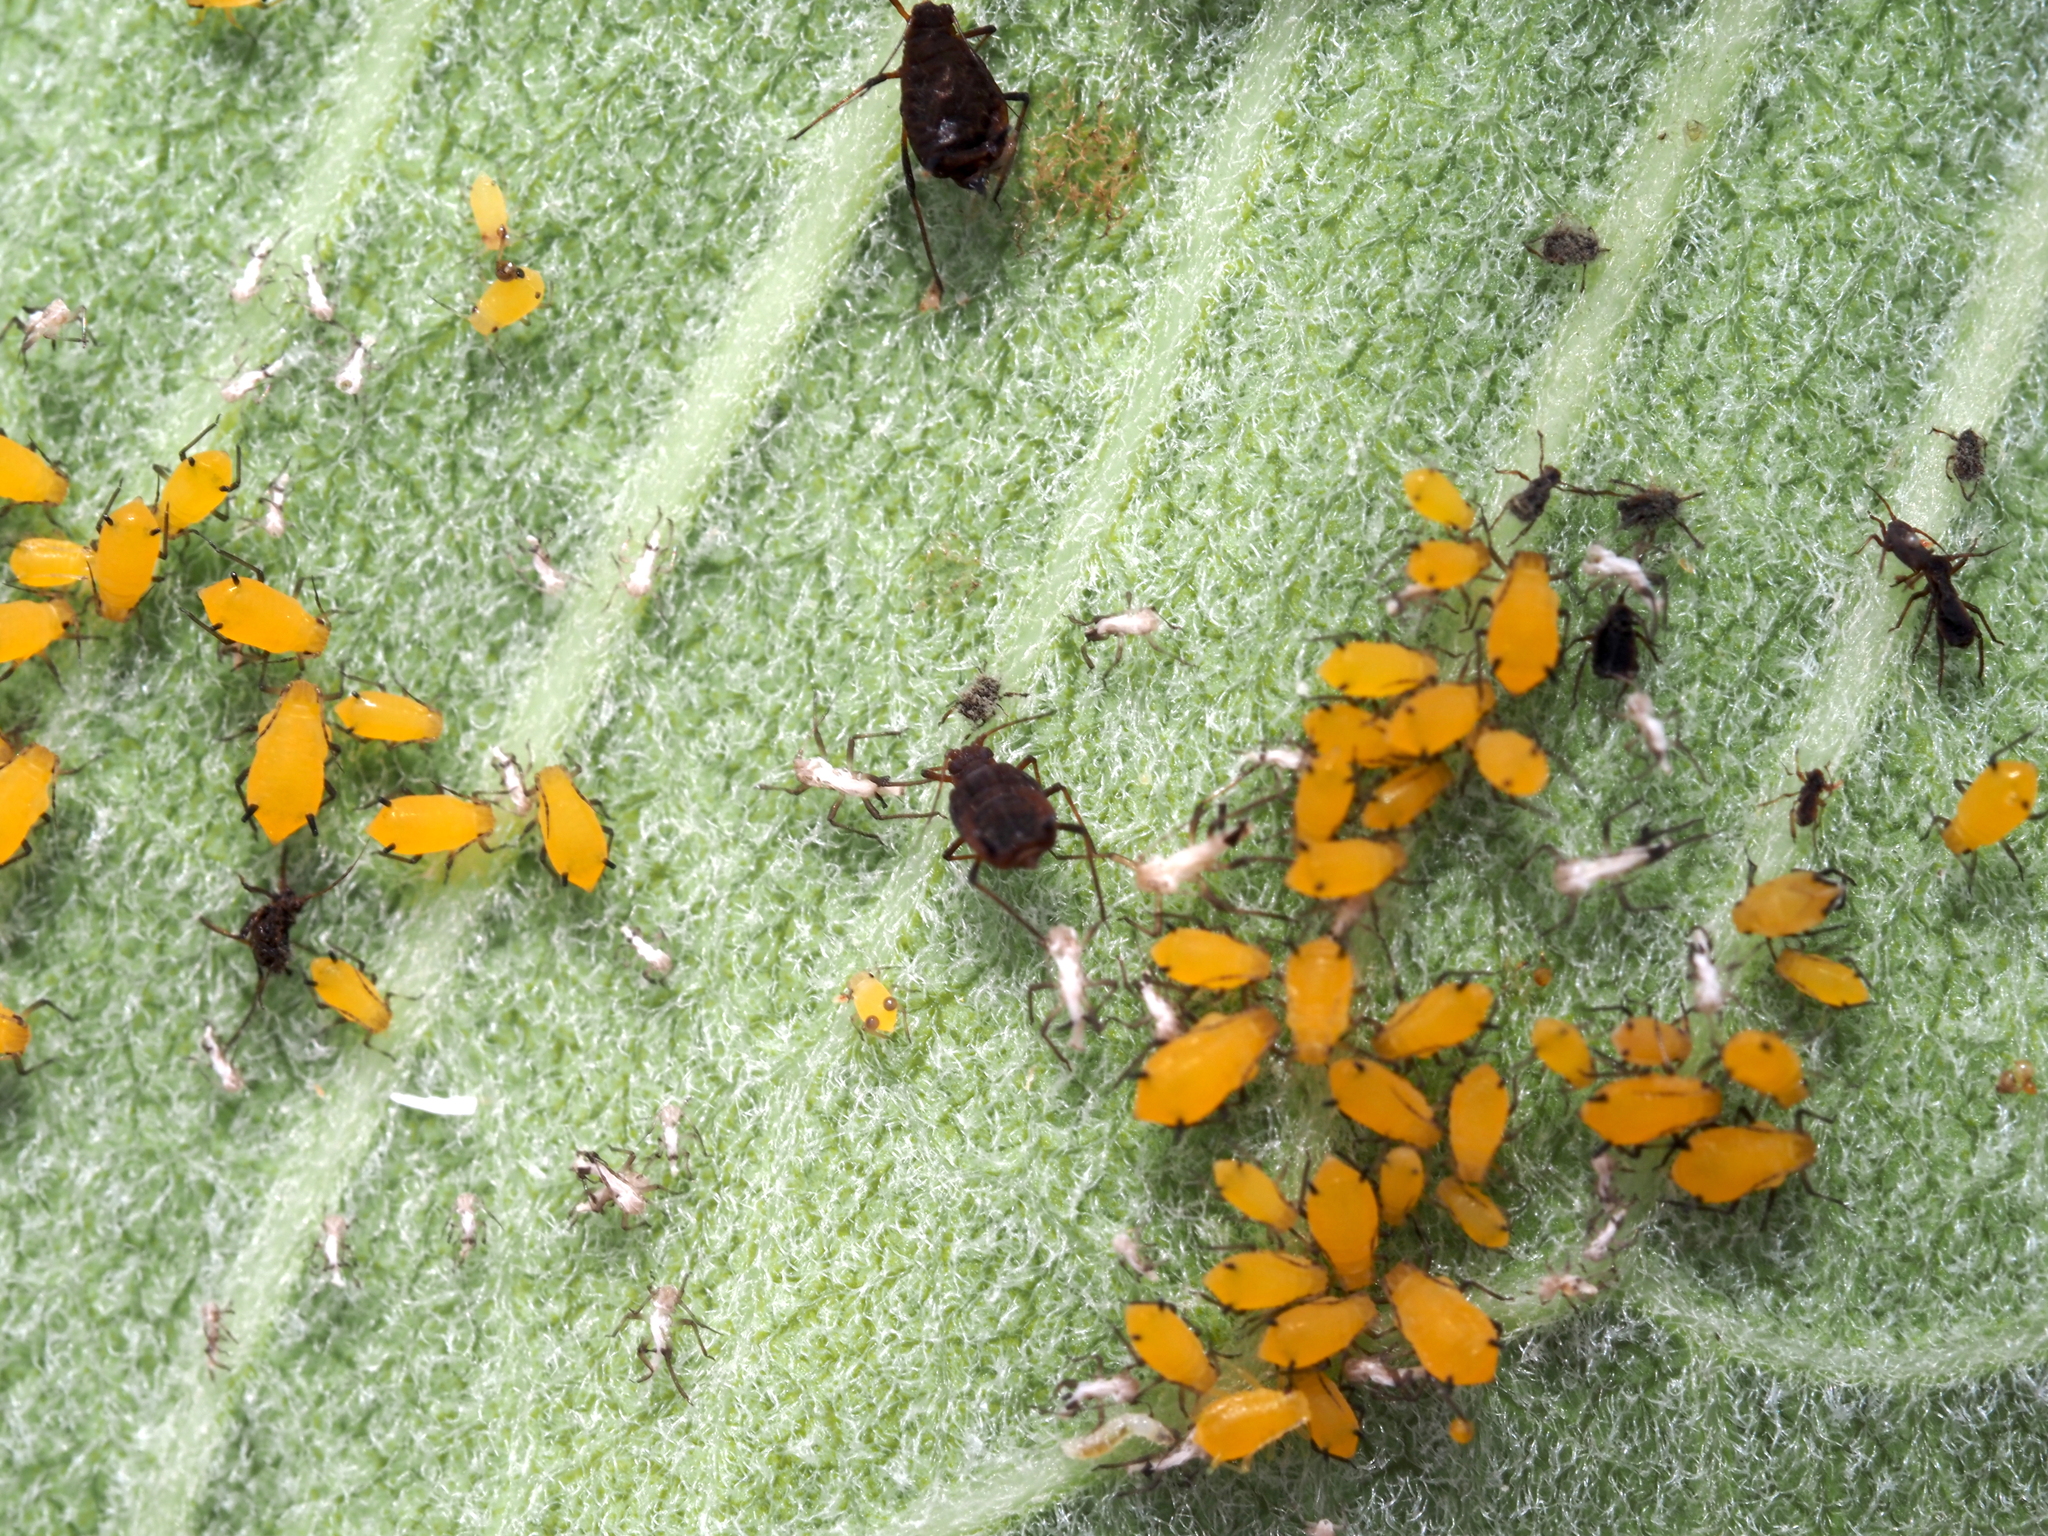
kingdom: Animalia
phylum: Arthropoda
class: Insecta
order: Hemiptera
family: Aphididae
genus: Aphis
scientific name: Aphis nerii
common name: Oleander aphid
